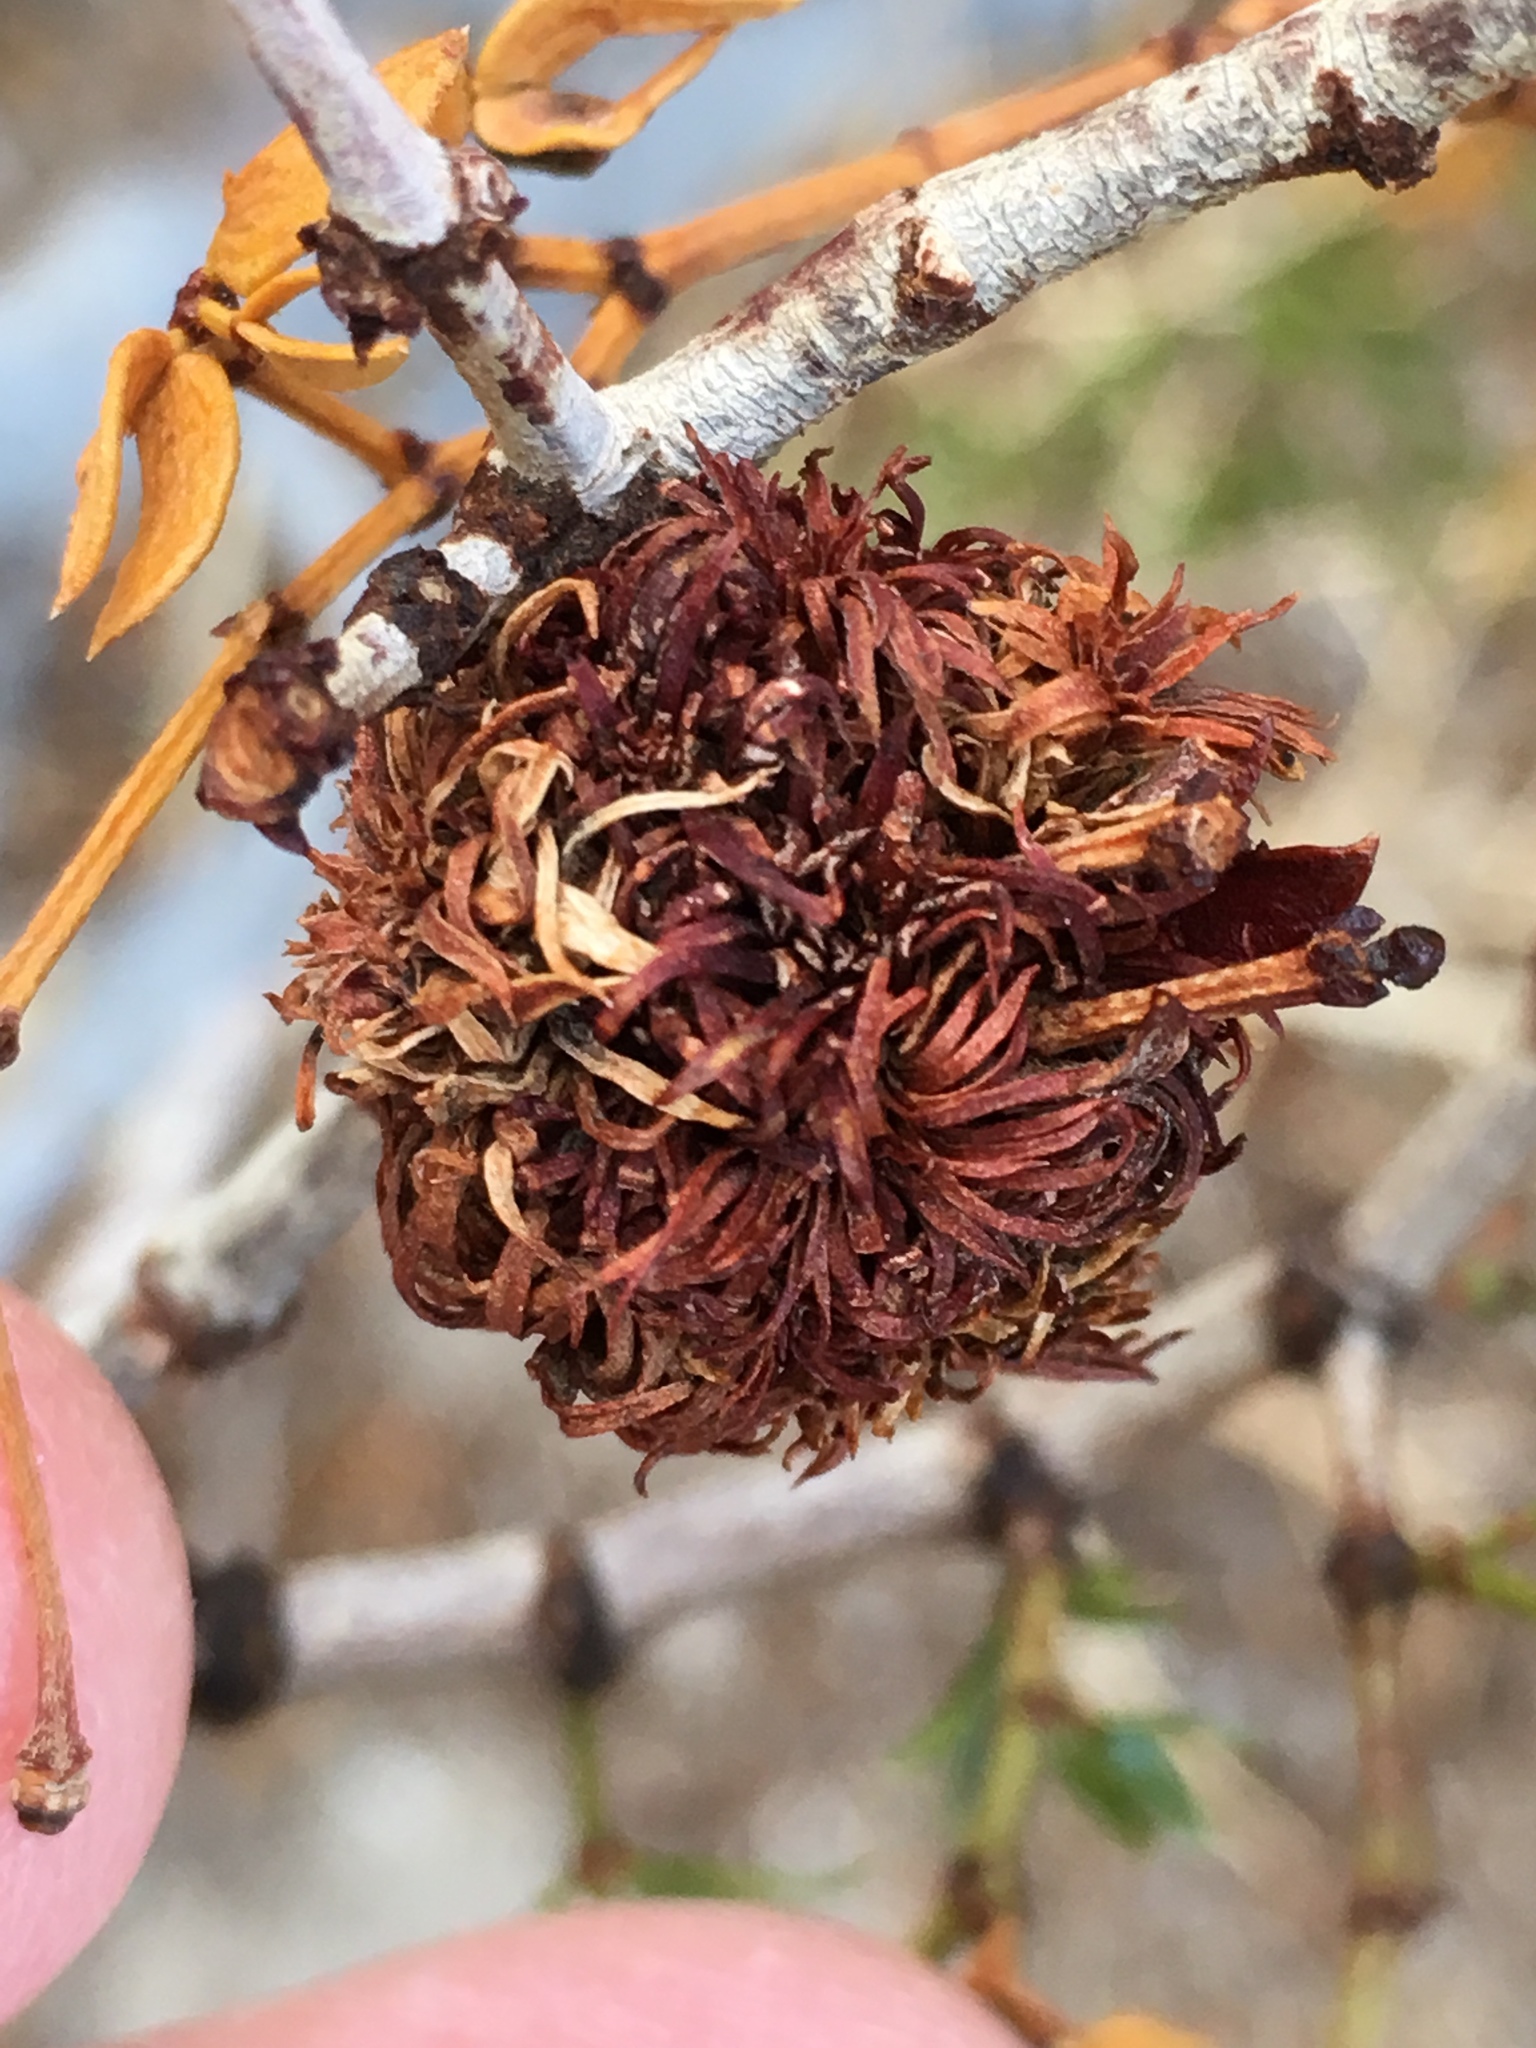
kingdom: Animalia
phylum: Arthropoda
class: Insecta
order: Diptera
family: Cecidomyiidae
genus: Asphondylia
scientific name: Asphondylia auripila
